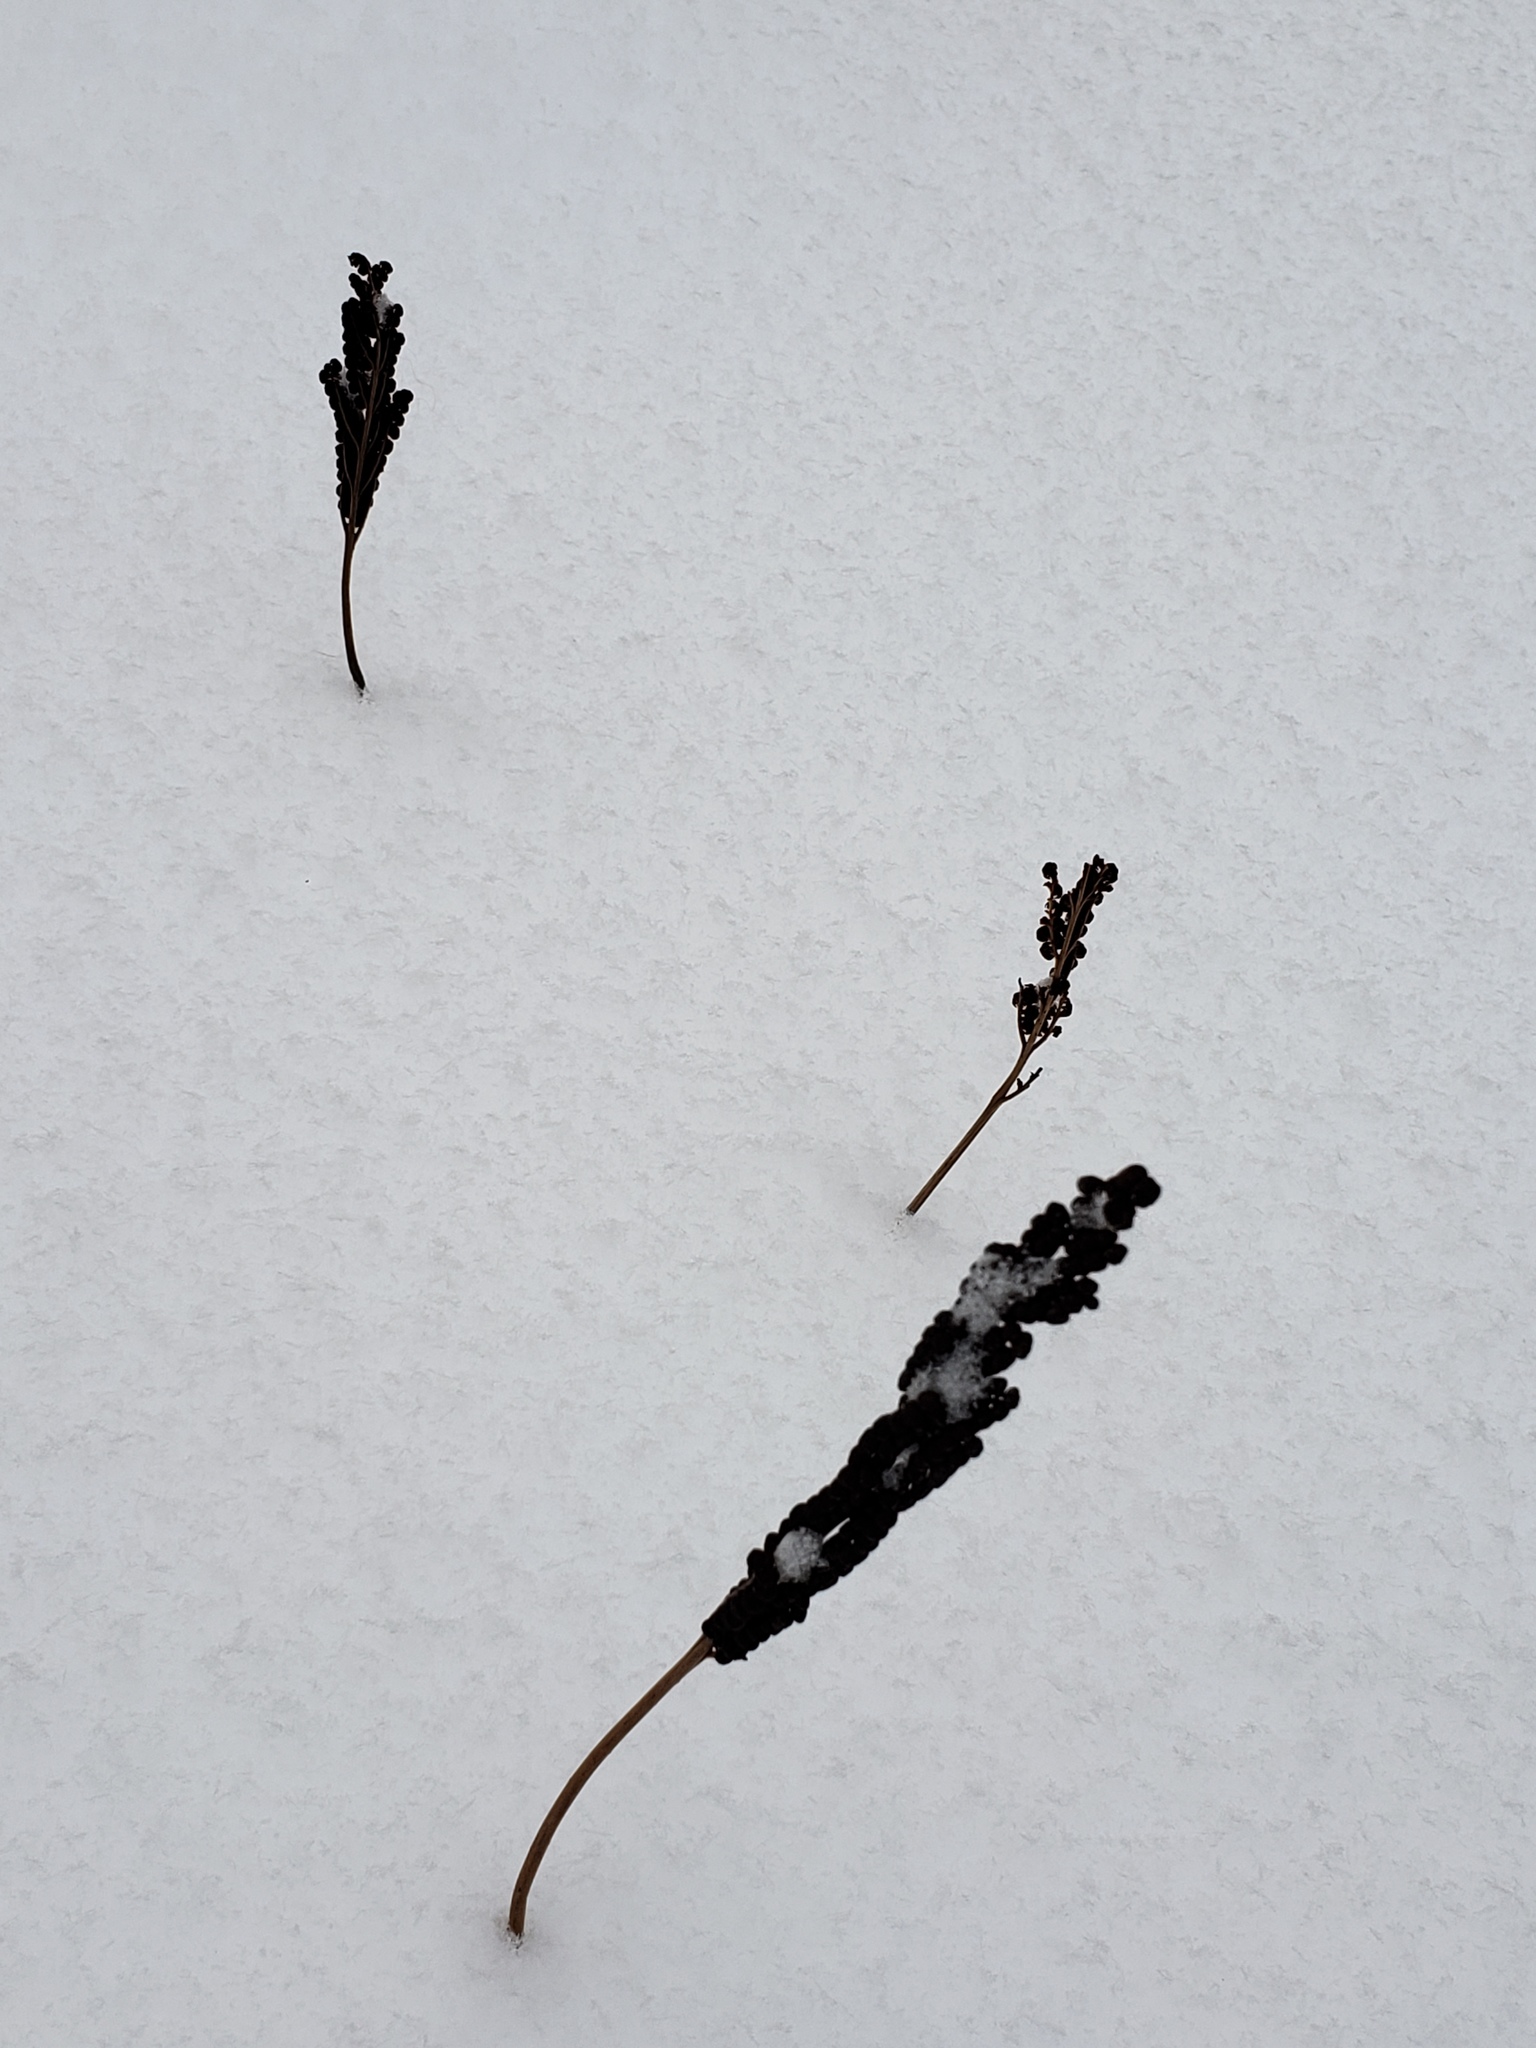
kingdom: Plantae
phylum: Tracheophyta
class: Polypodiopsida
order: Polypodiales
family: Onocleaceae
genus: Onoclea
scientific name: Onoclea sensibilis
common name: Sensitive fern
